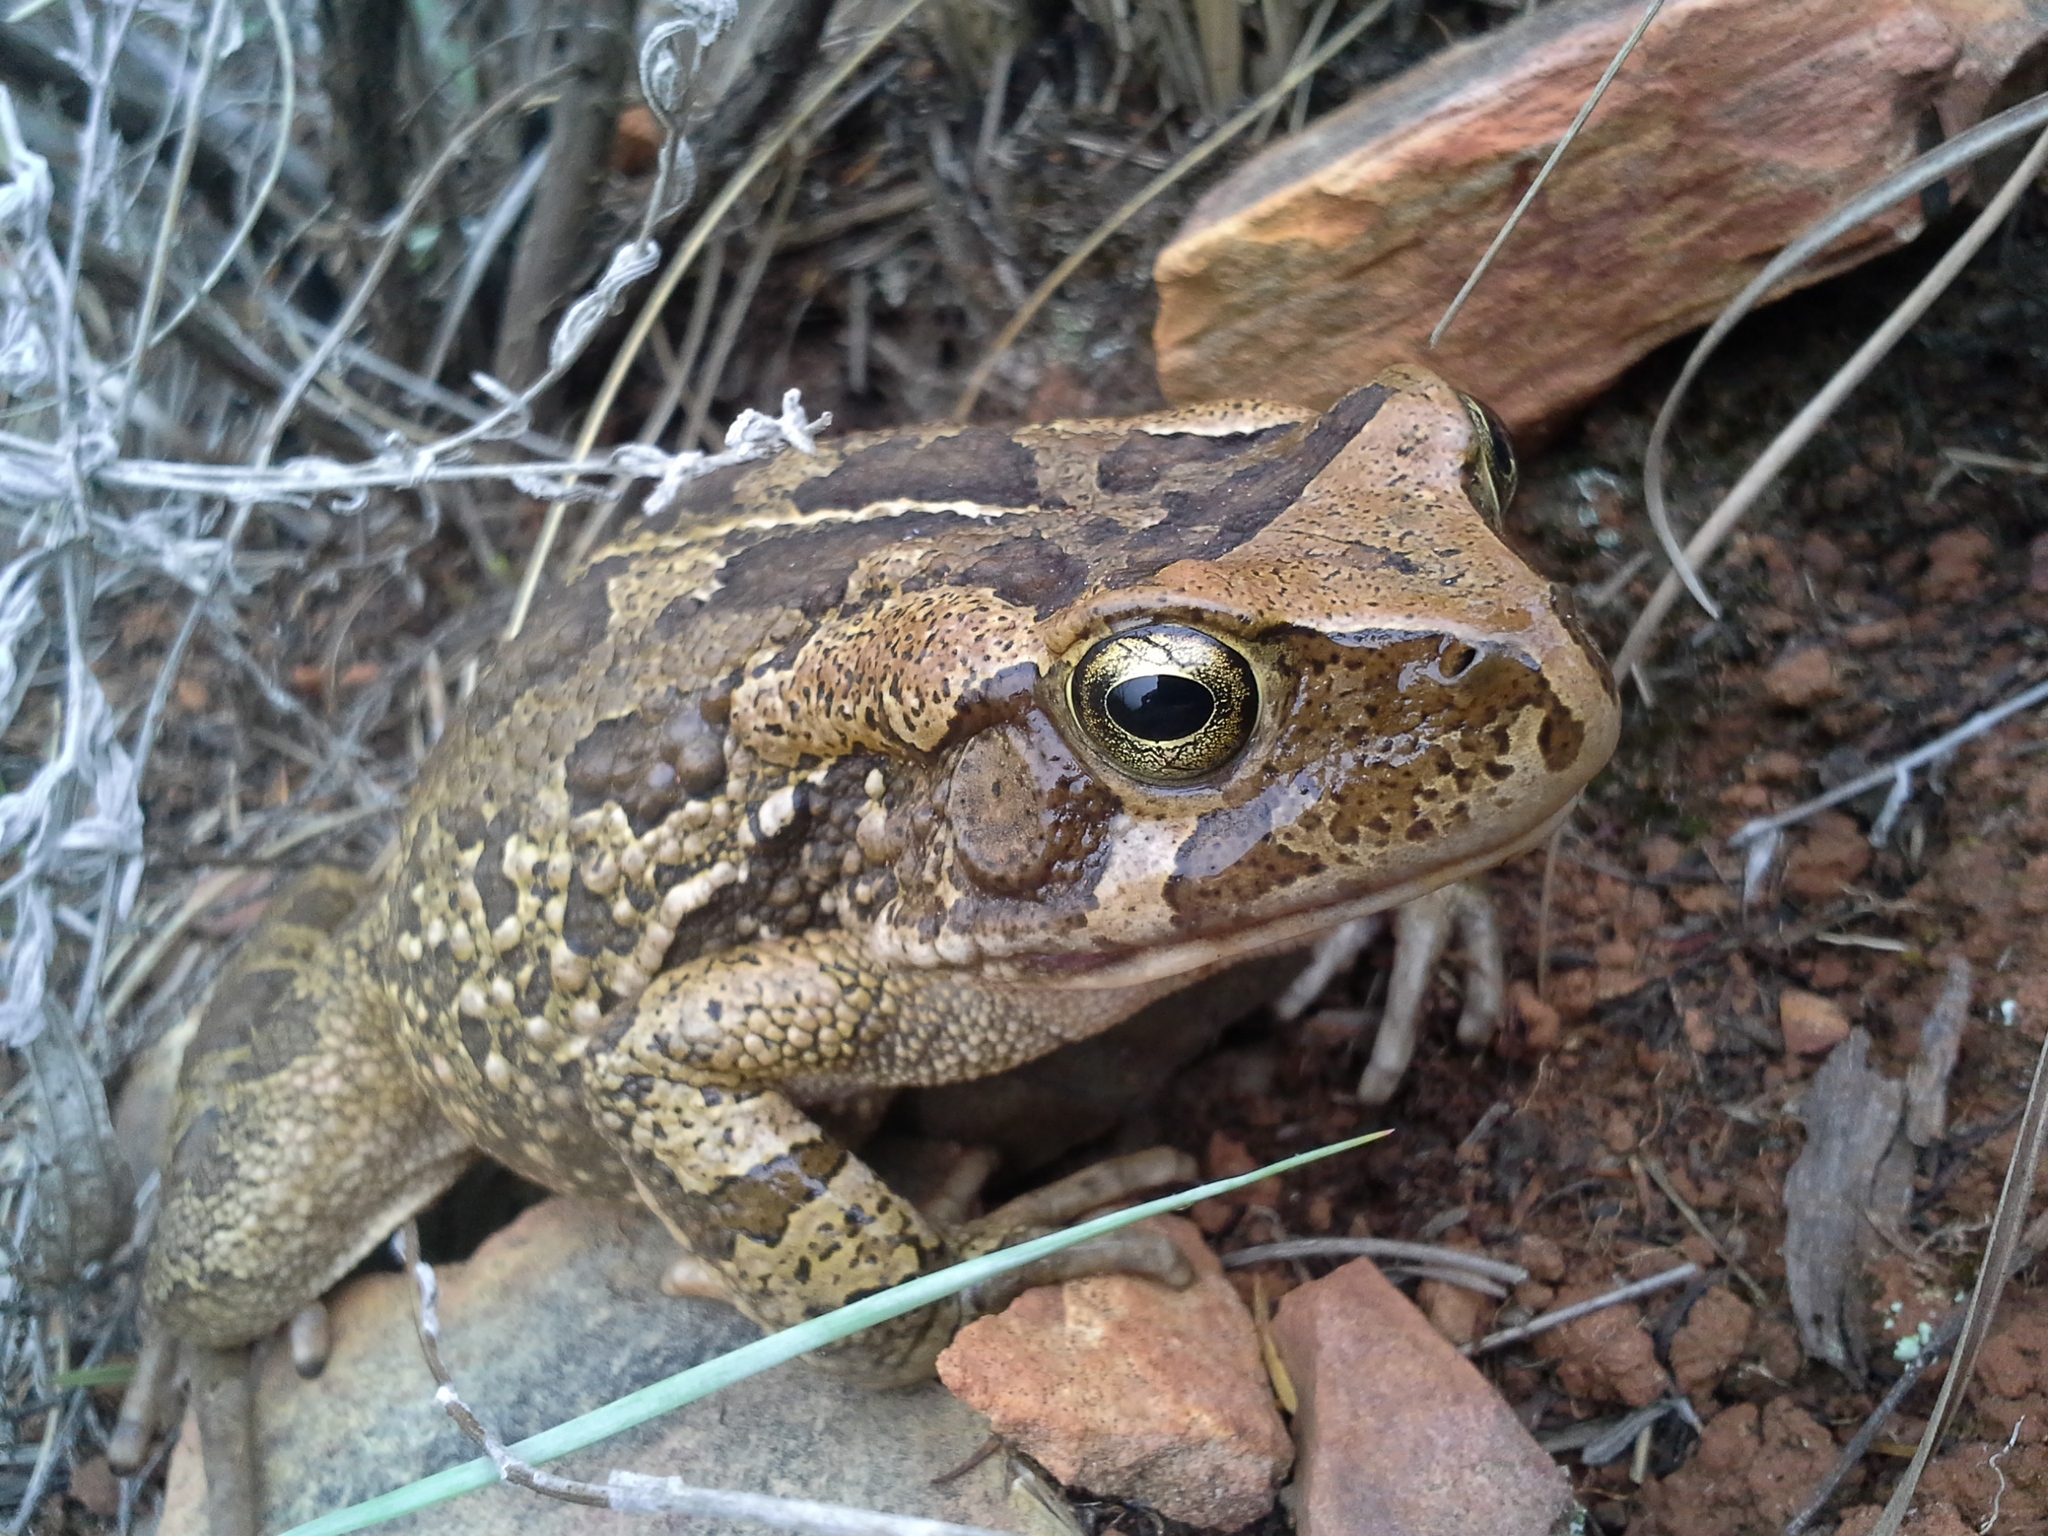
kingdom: Animalia
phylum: Chordata
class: Amphibia
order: Anura
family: Bufonidae
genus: Sclerophrys
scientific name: Sclerophrys capensis
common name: Ranger’s toad
